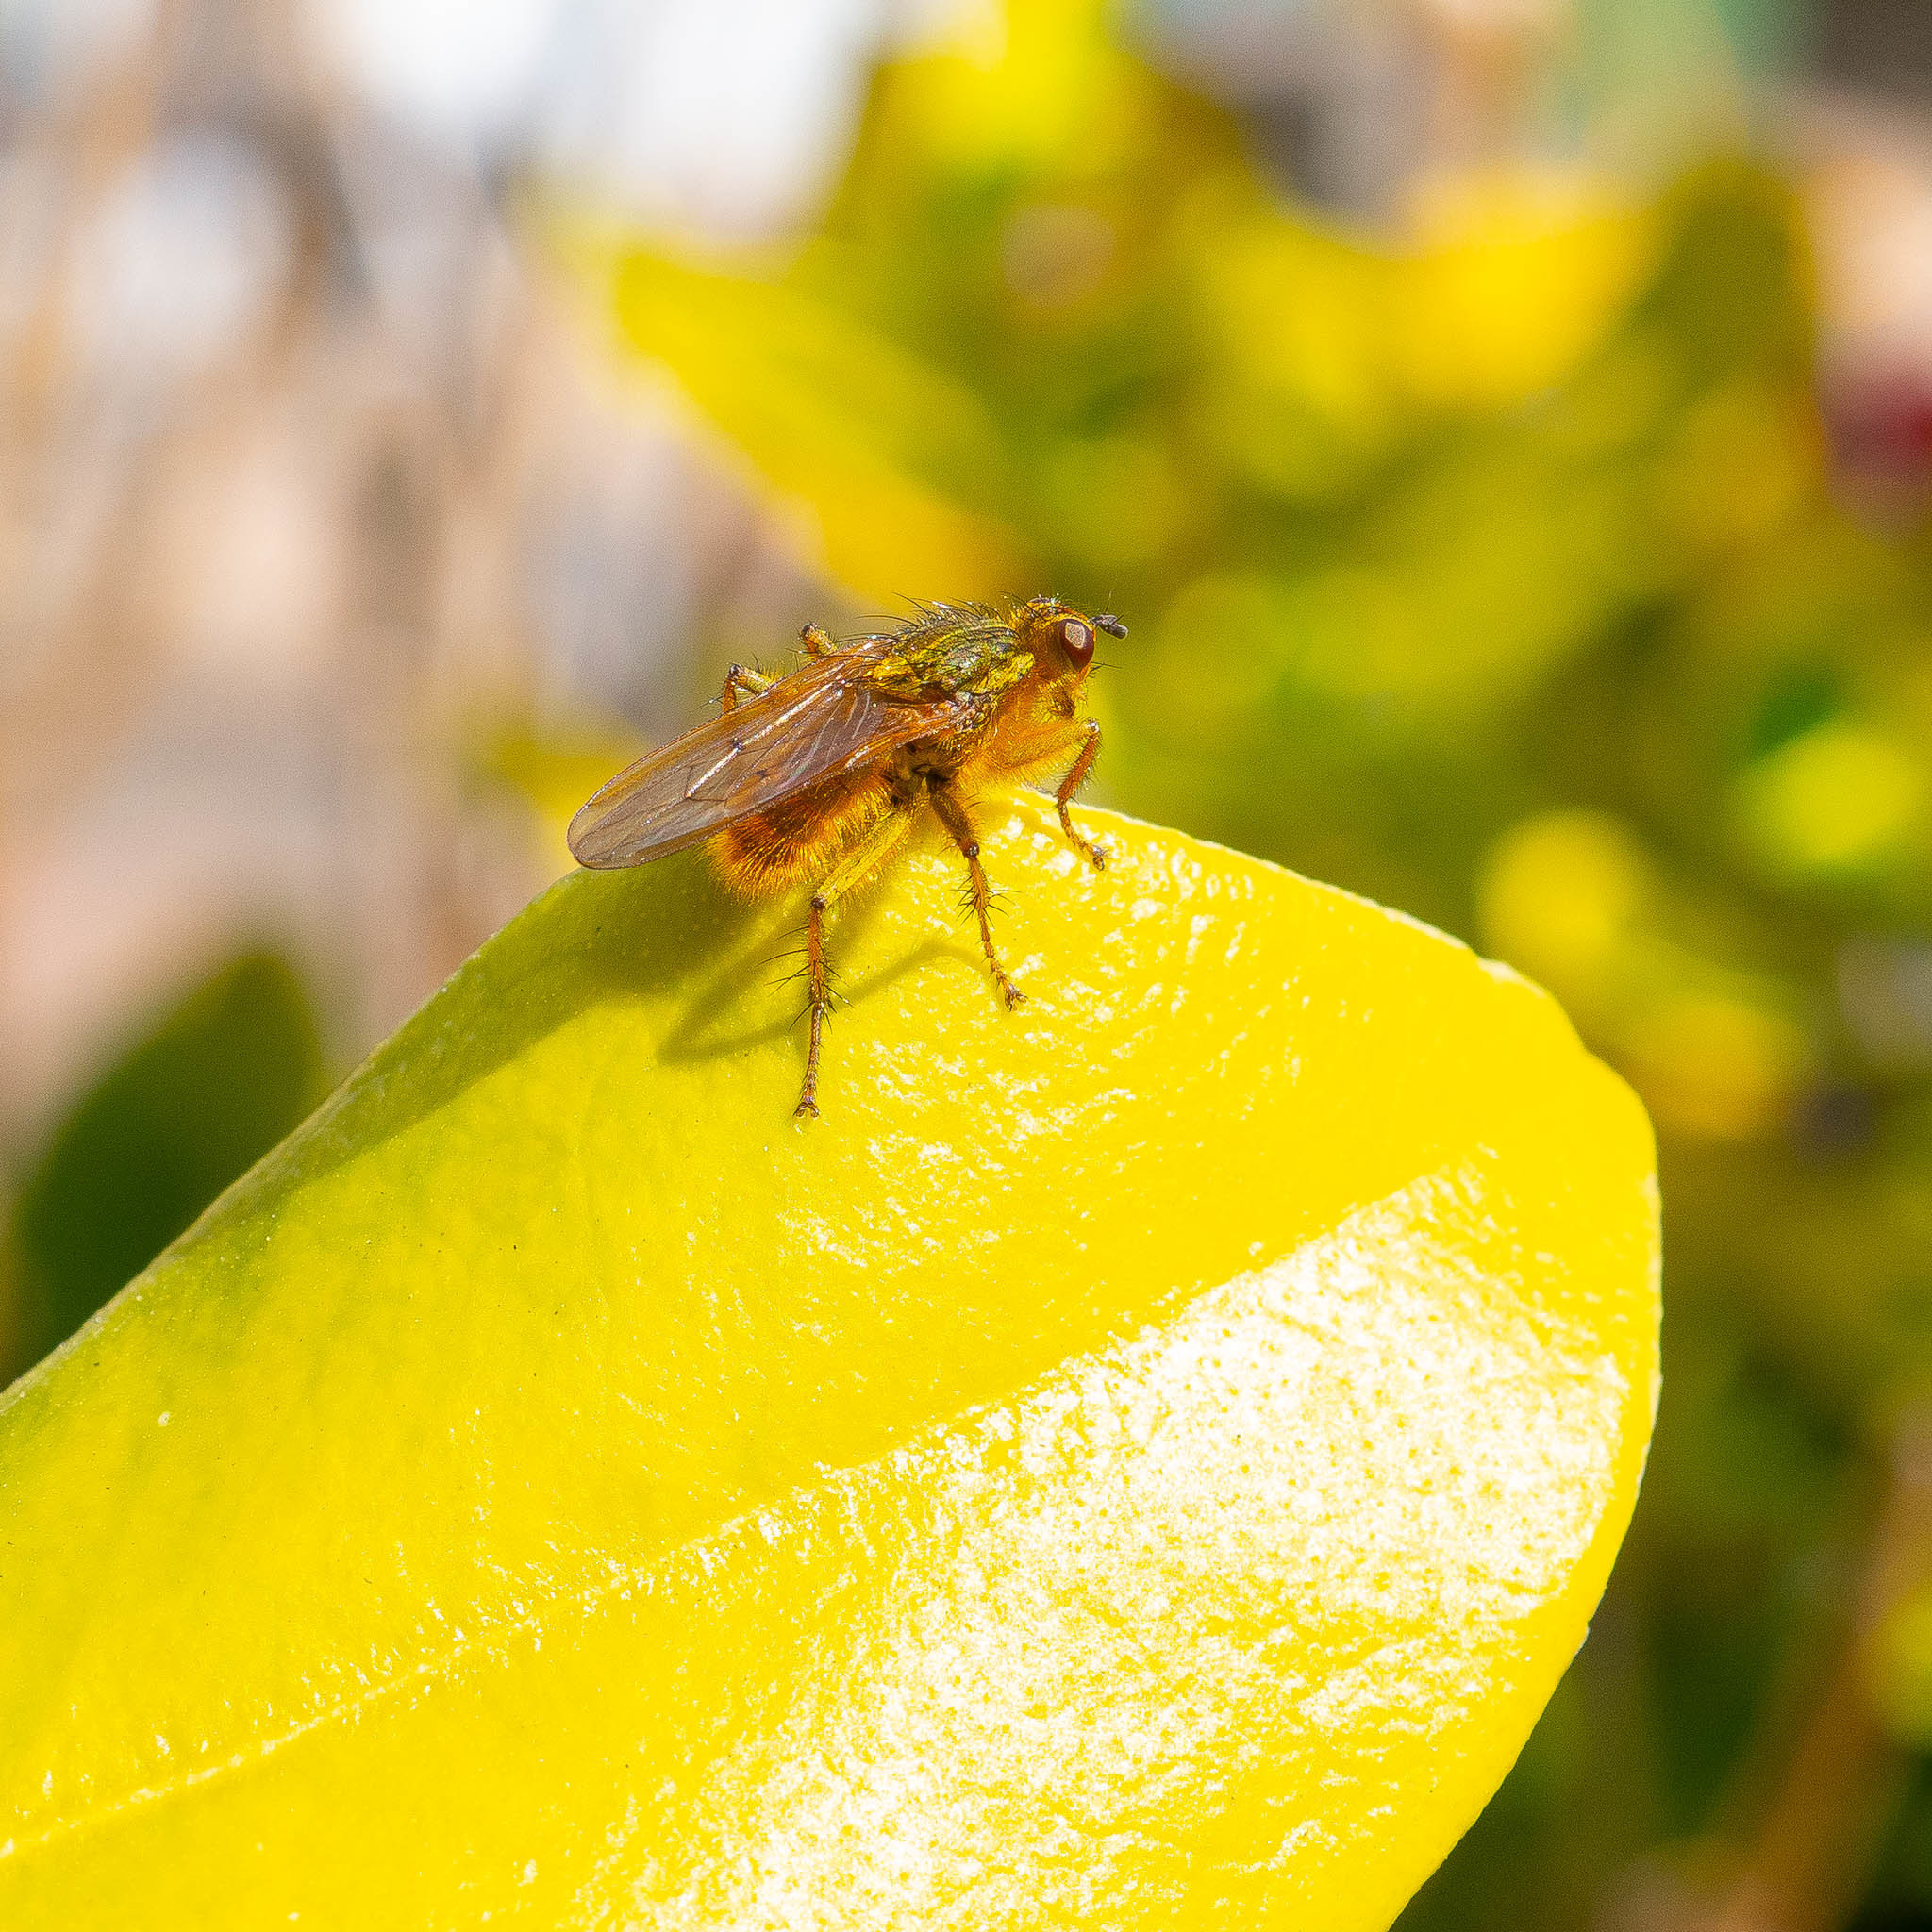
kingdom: Animalia
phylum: Arthropoda
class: Insecta
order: Diptera
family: Scathophagidae
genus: Scathophaga
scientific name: Scathophaga stercoraria
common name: Yellow dung fly
